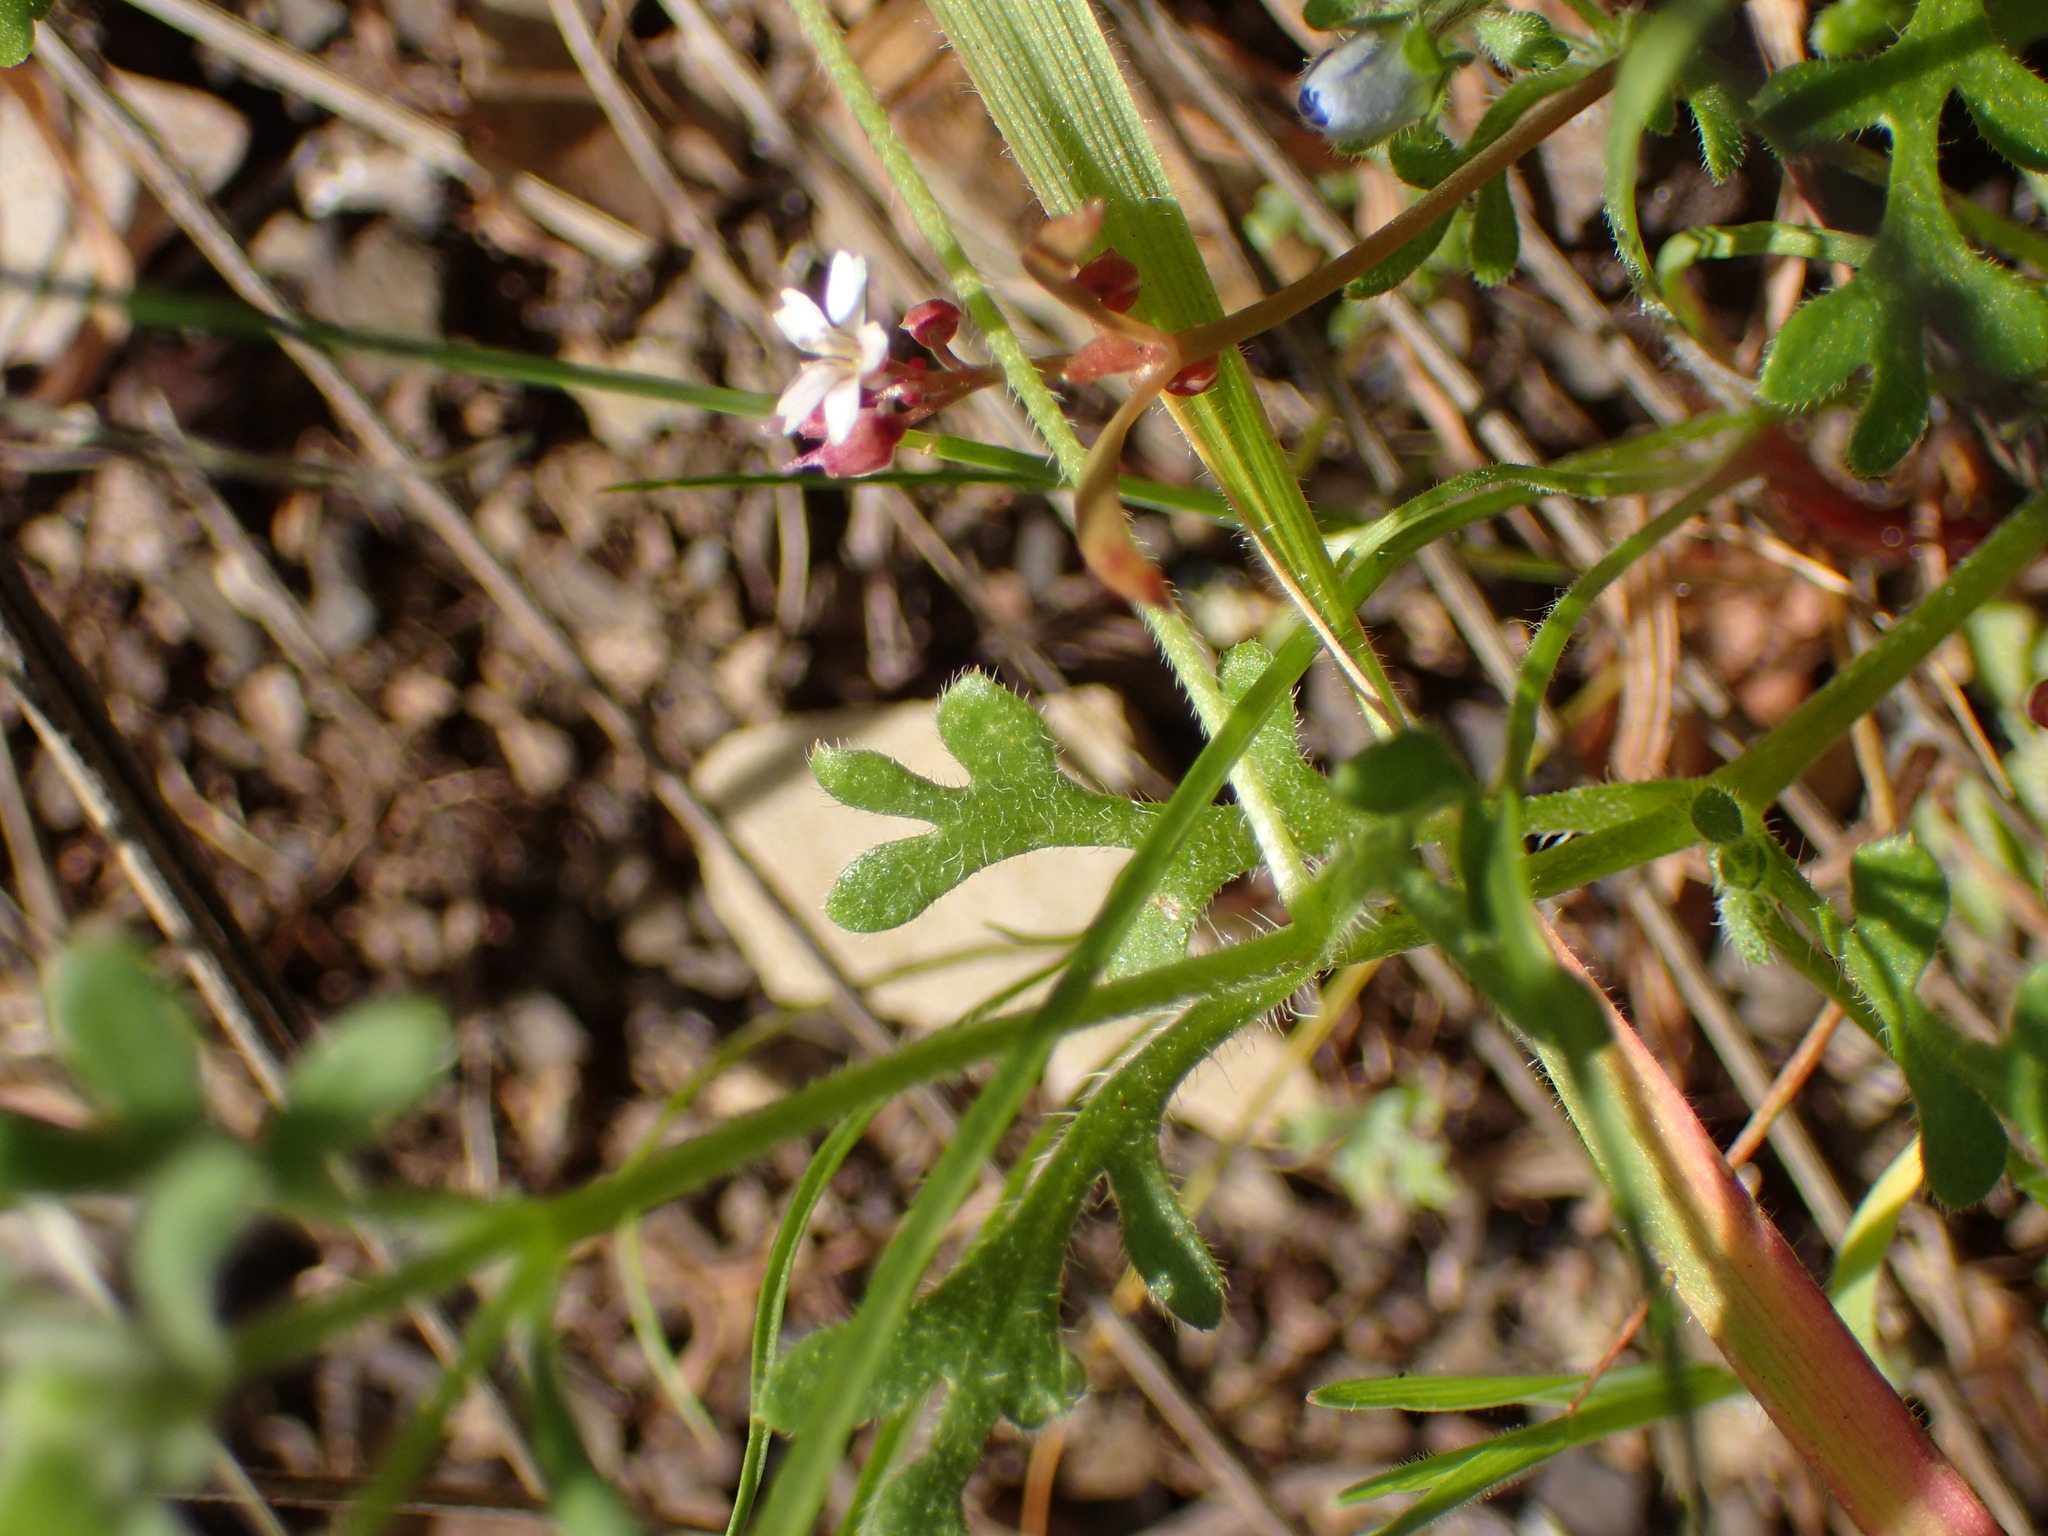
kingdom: Plantae
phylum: Tracheophyta
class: Magnoliopsida
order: Boraginales
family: Hydrophyllaceae
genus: Nemophila
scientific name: Nemophila menziesii
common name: Baby's-blue-eyes
